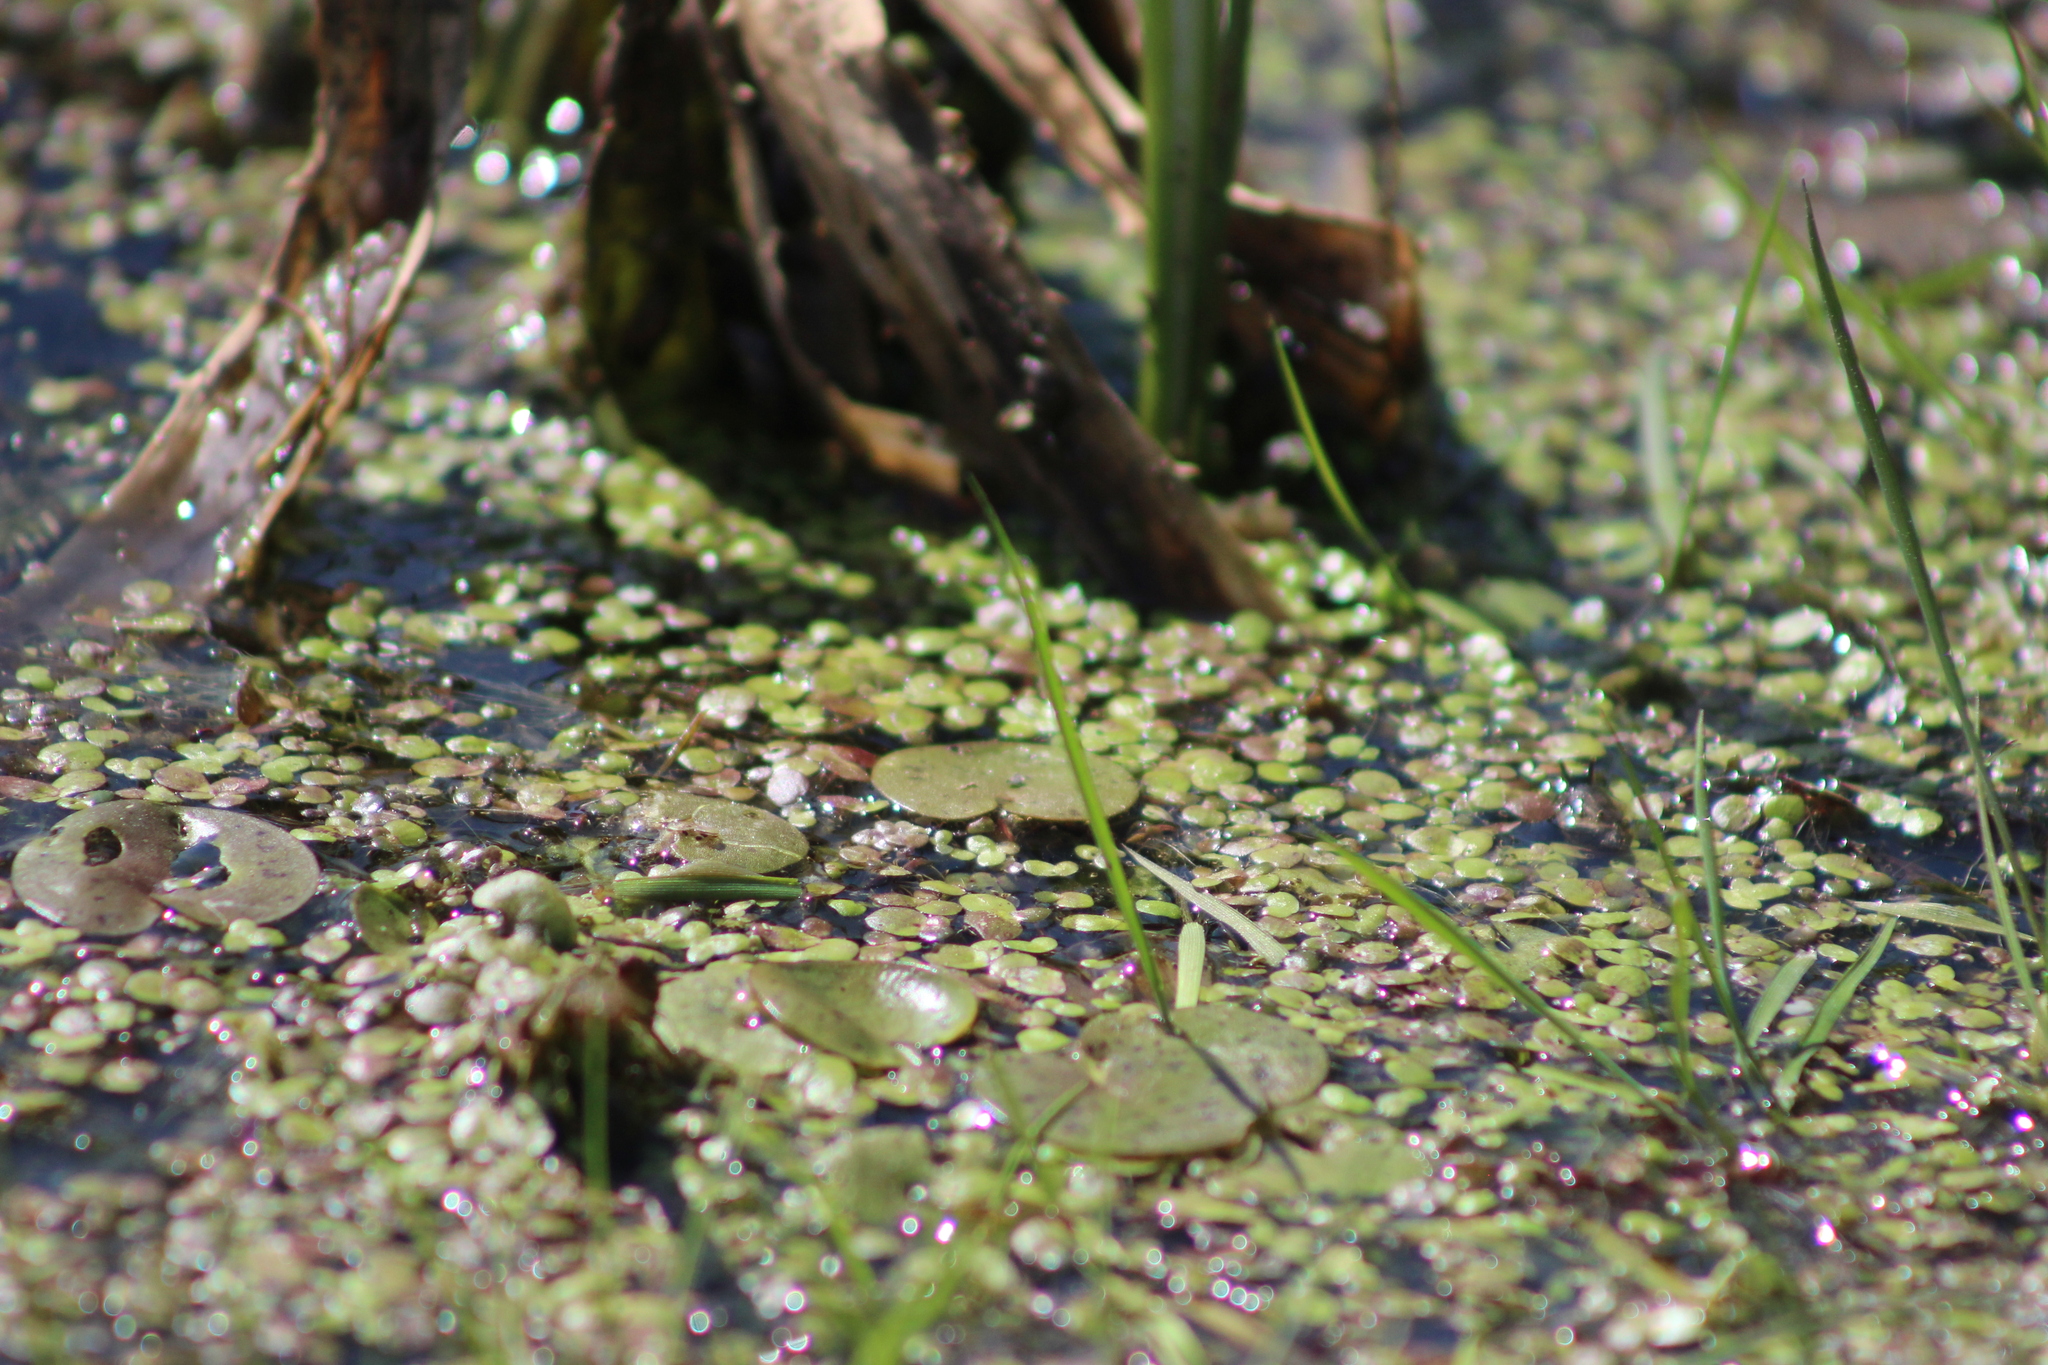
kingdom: Plantae
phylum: Tracheophyta
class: Liliopsida
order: Alismatales
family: Araceae
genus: Spirodela
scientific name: Spirodela polyrhiza
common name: Great duckweed
